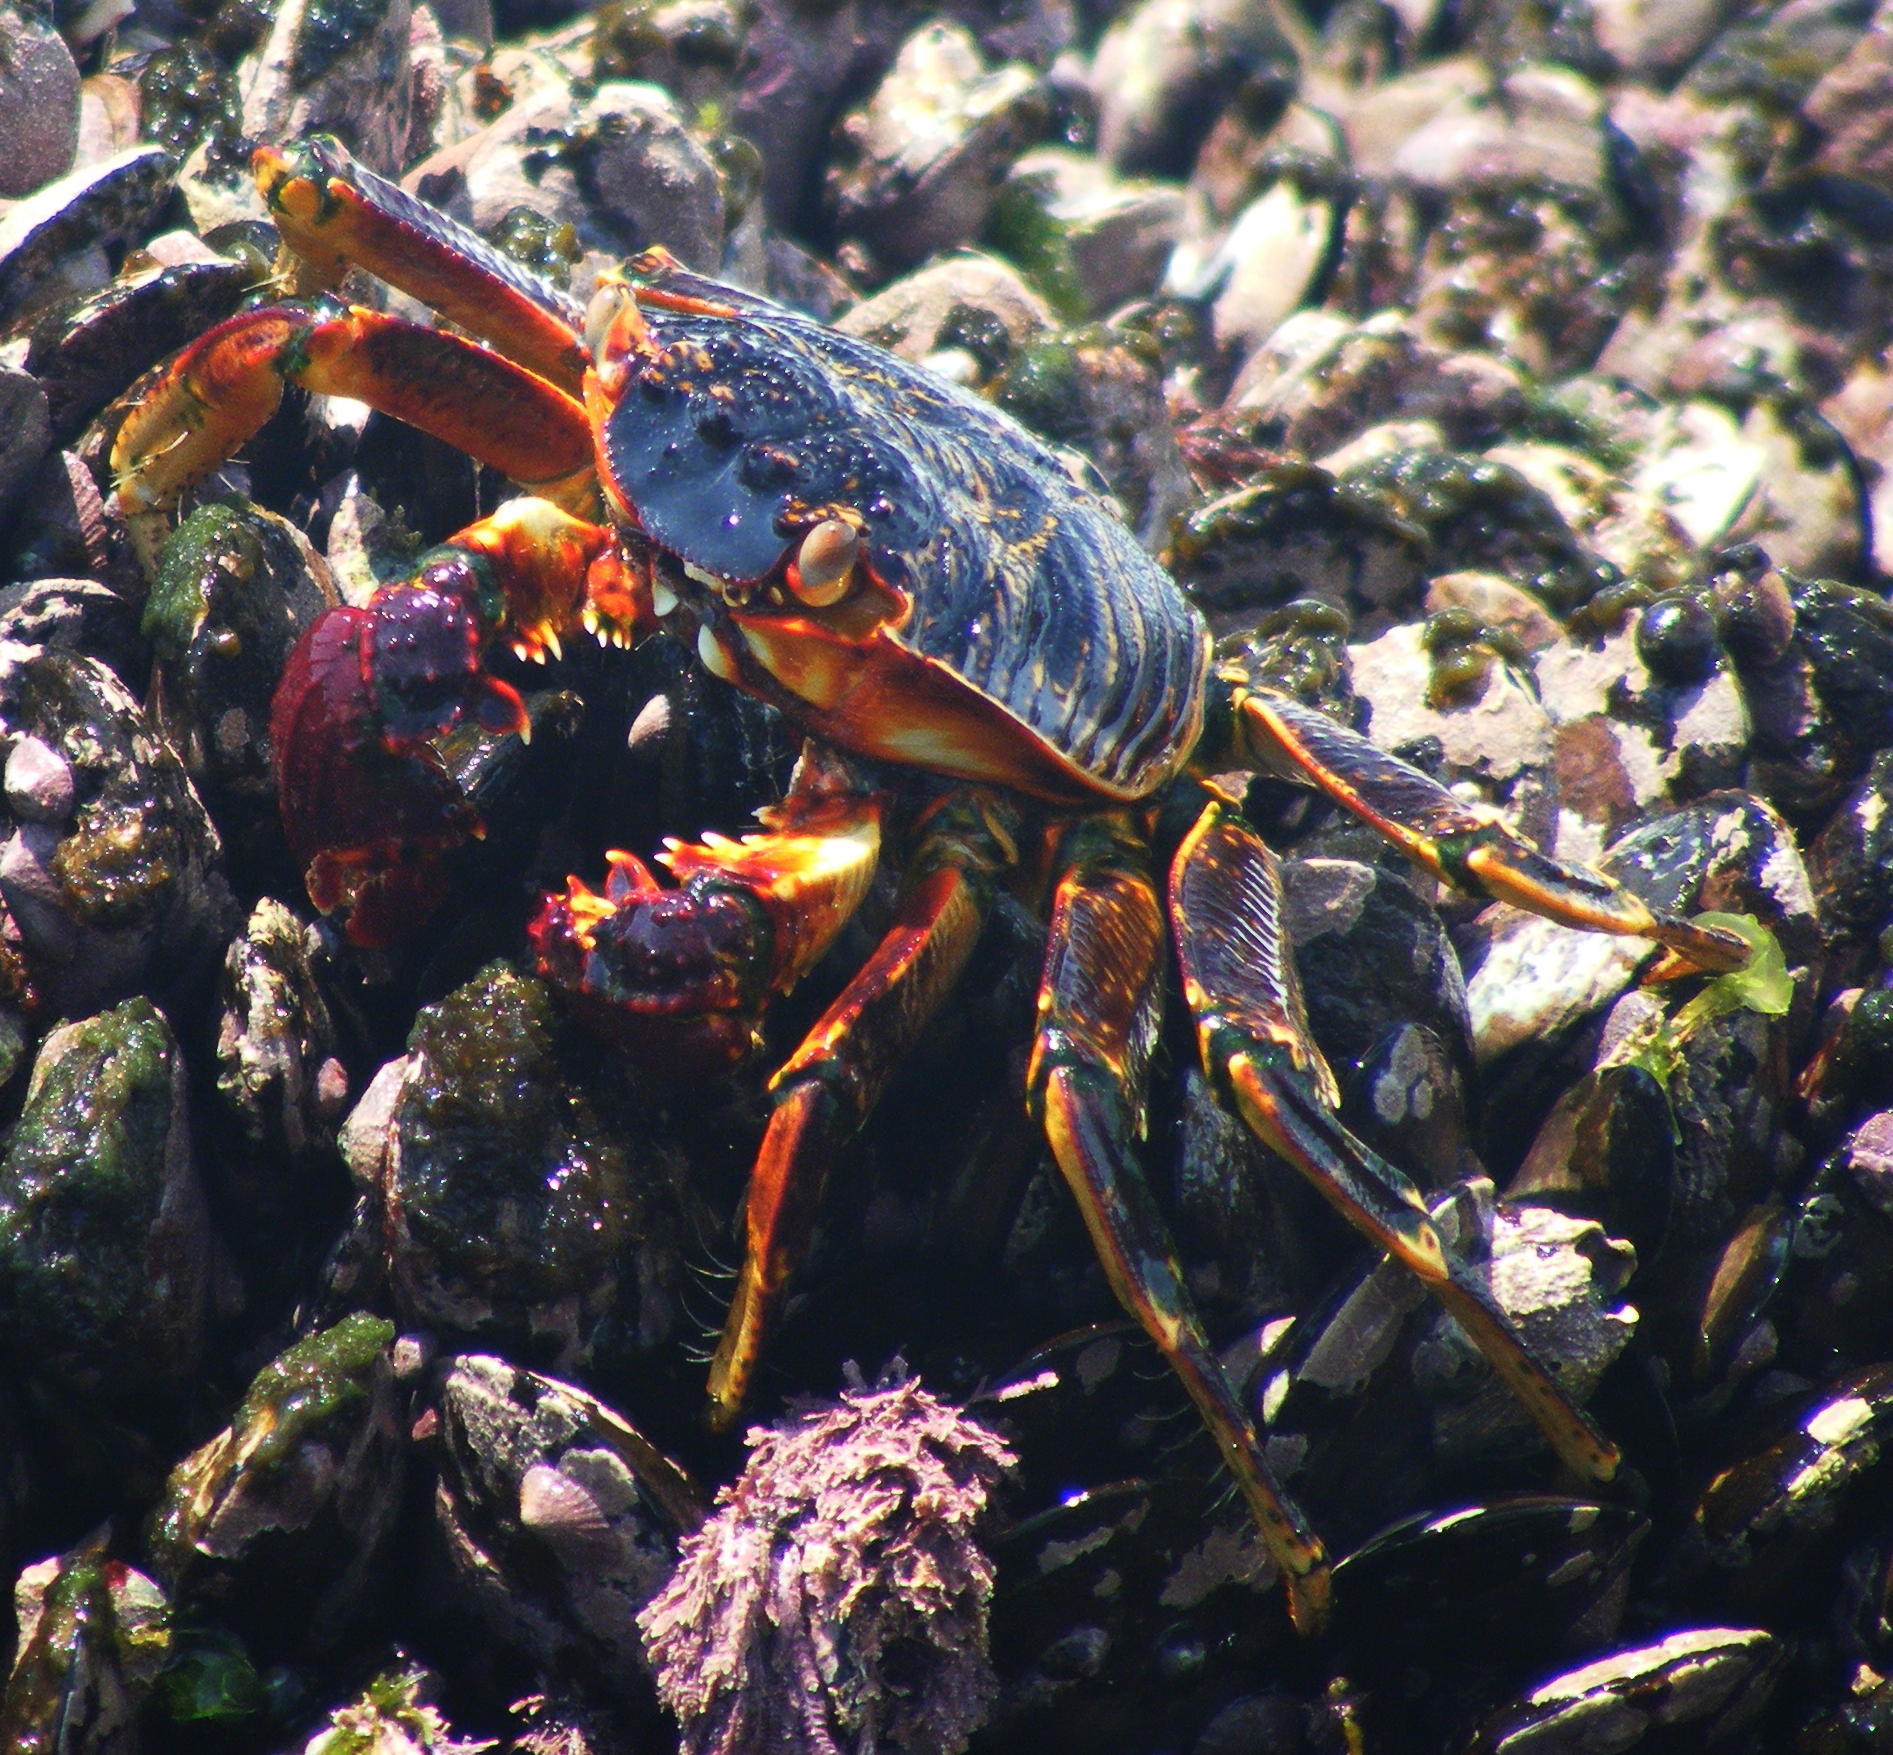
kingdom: Animalia
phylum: Arthropoda
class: Malacostraca
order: Decapoda
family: Grapsidae
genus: Grapsus
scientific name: Grapsus tenuicrustatus
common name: Natal lightfoot crab
